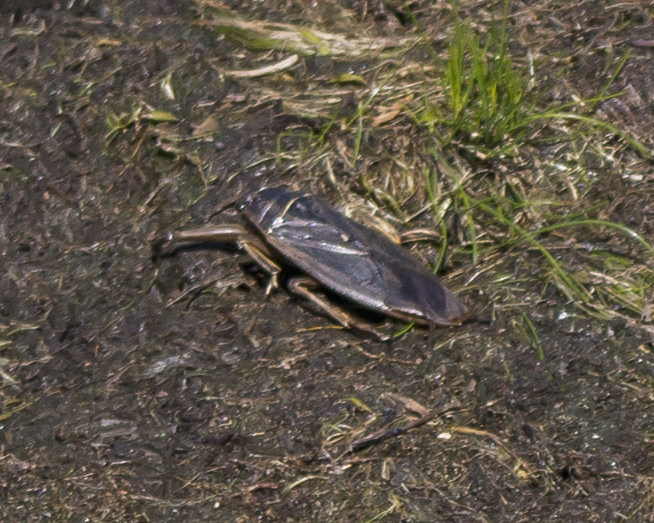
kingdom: Animalia
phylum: Arthropoda
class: Insecta
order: Hemiptera
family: Belostomatidae
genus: Lethocerus
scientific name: Lethocerus
